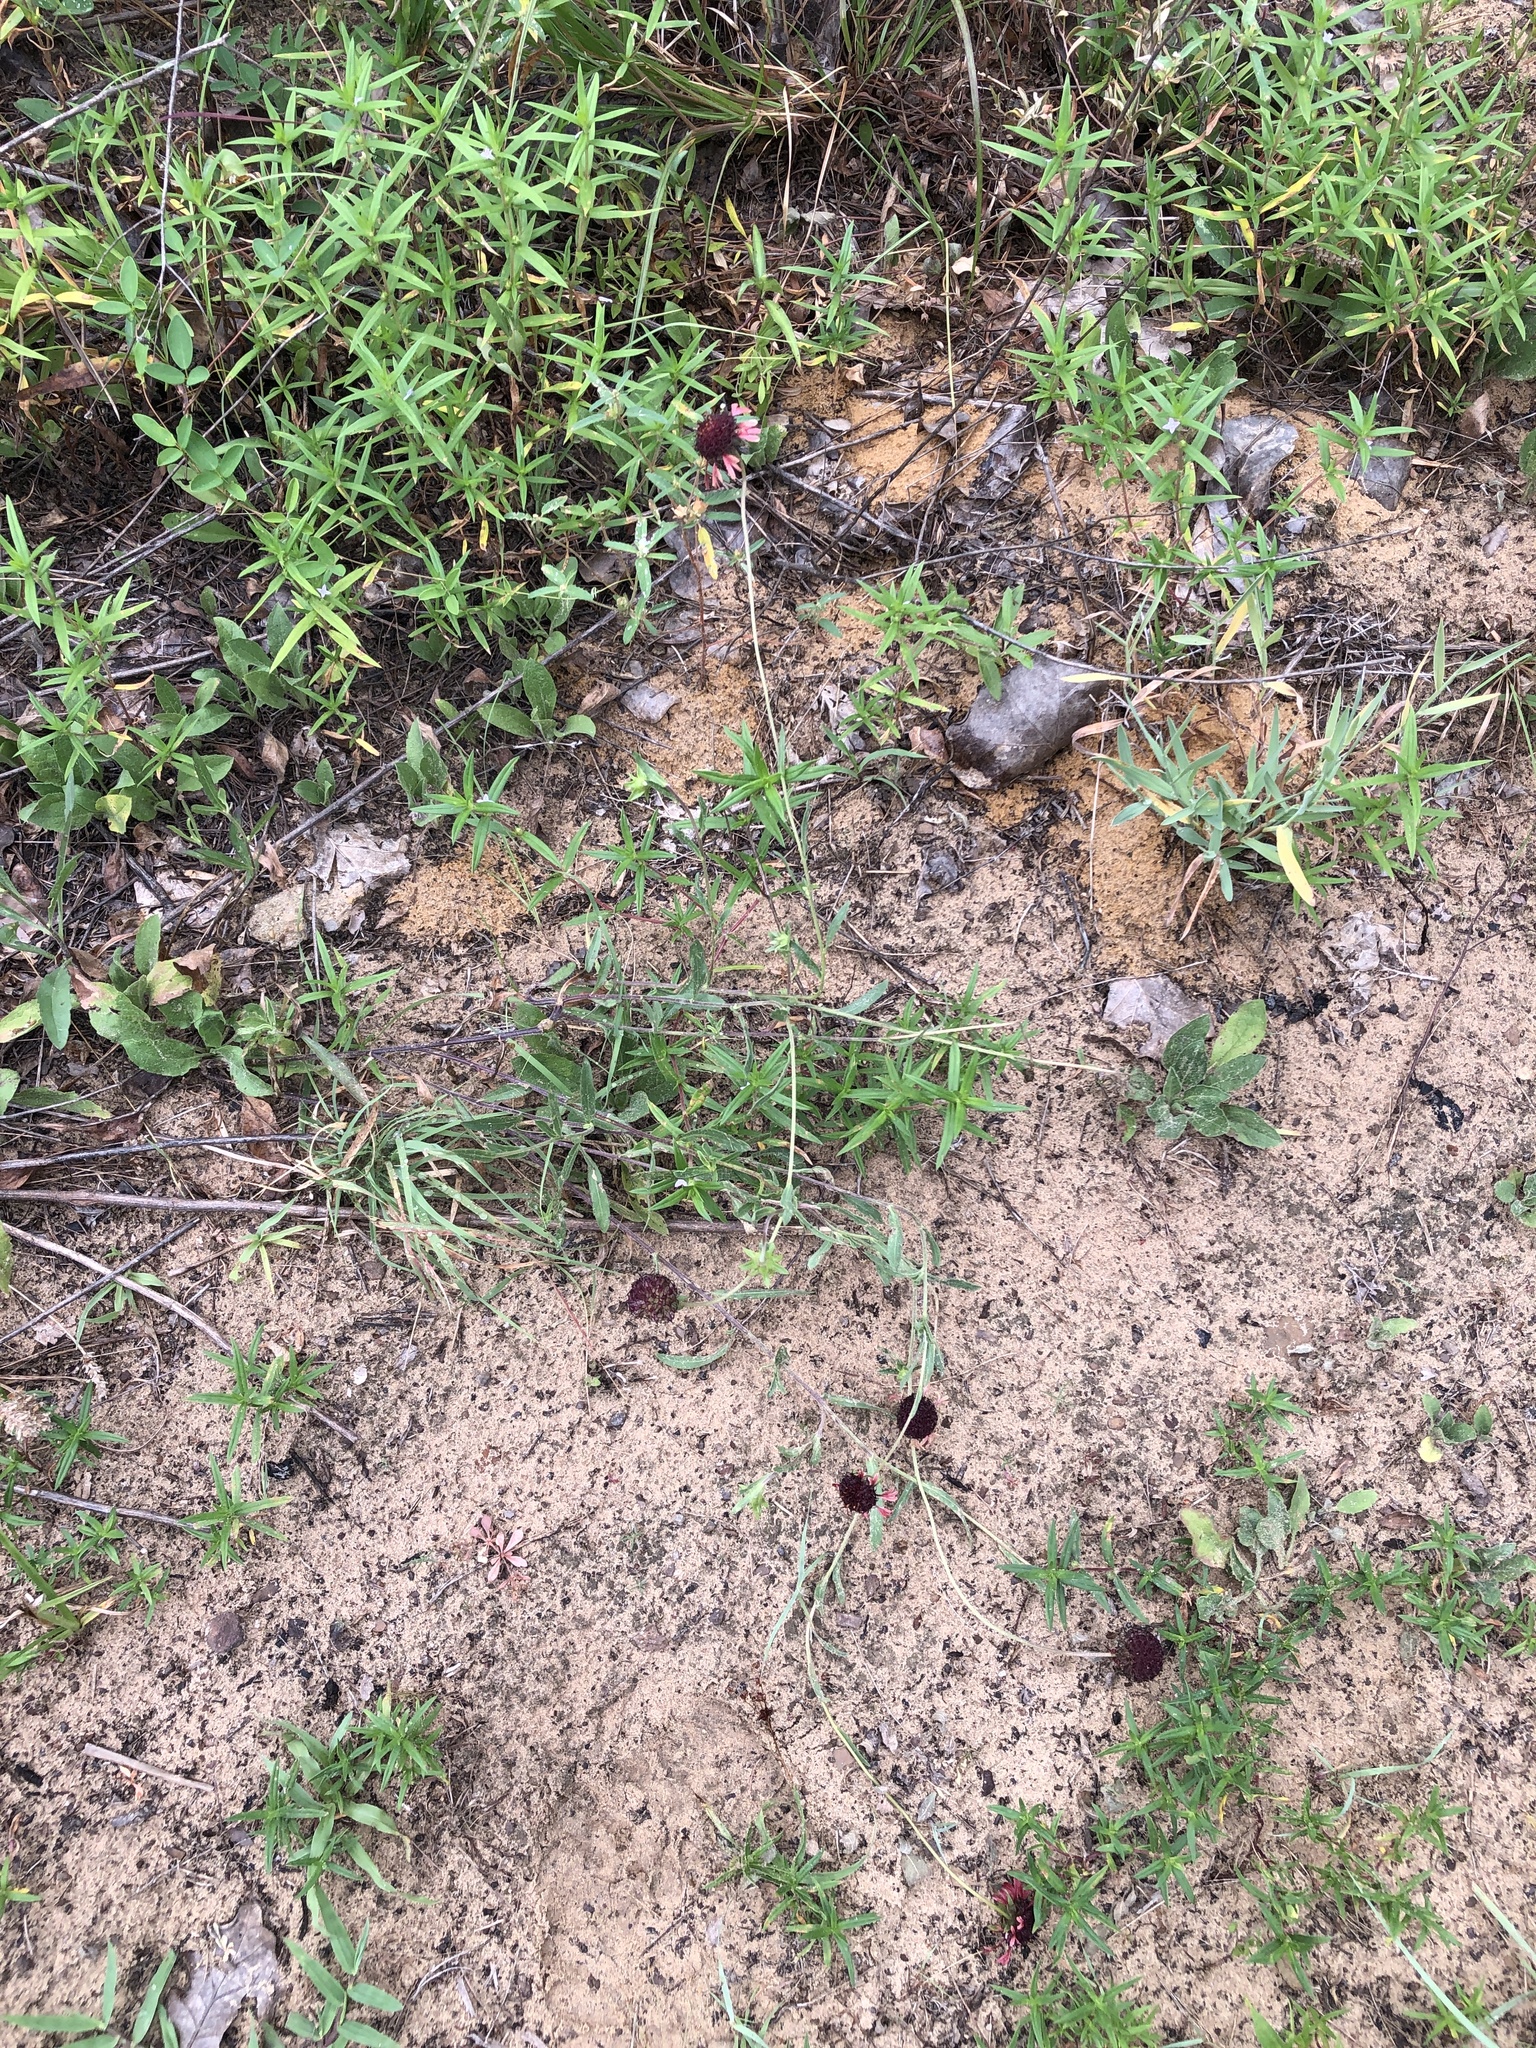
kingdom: Plantae
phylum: Tracheophyta
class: Magnoliopsida
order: Asterales
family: Asteraceae
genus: Gaillardia
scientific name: Gaillardia aestivalis
